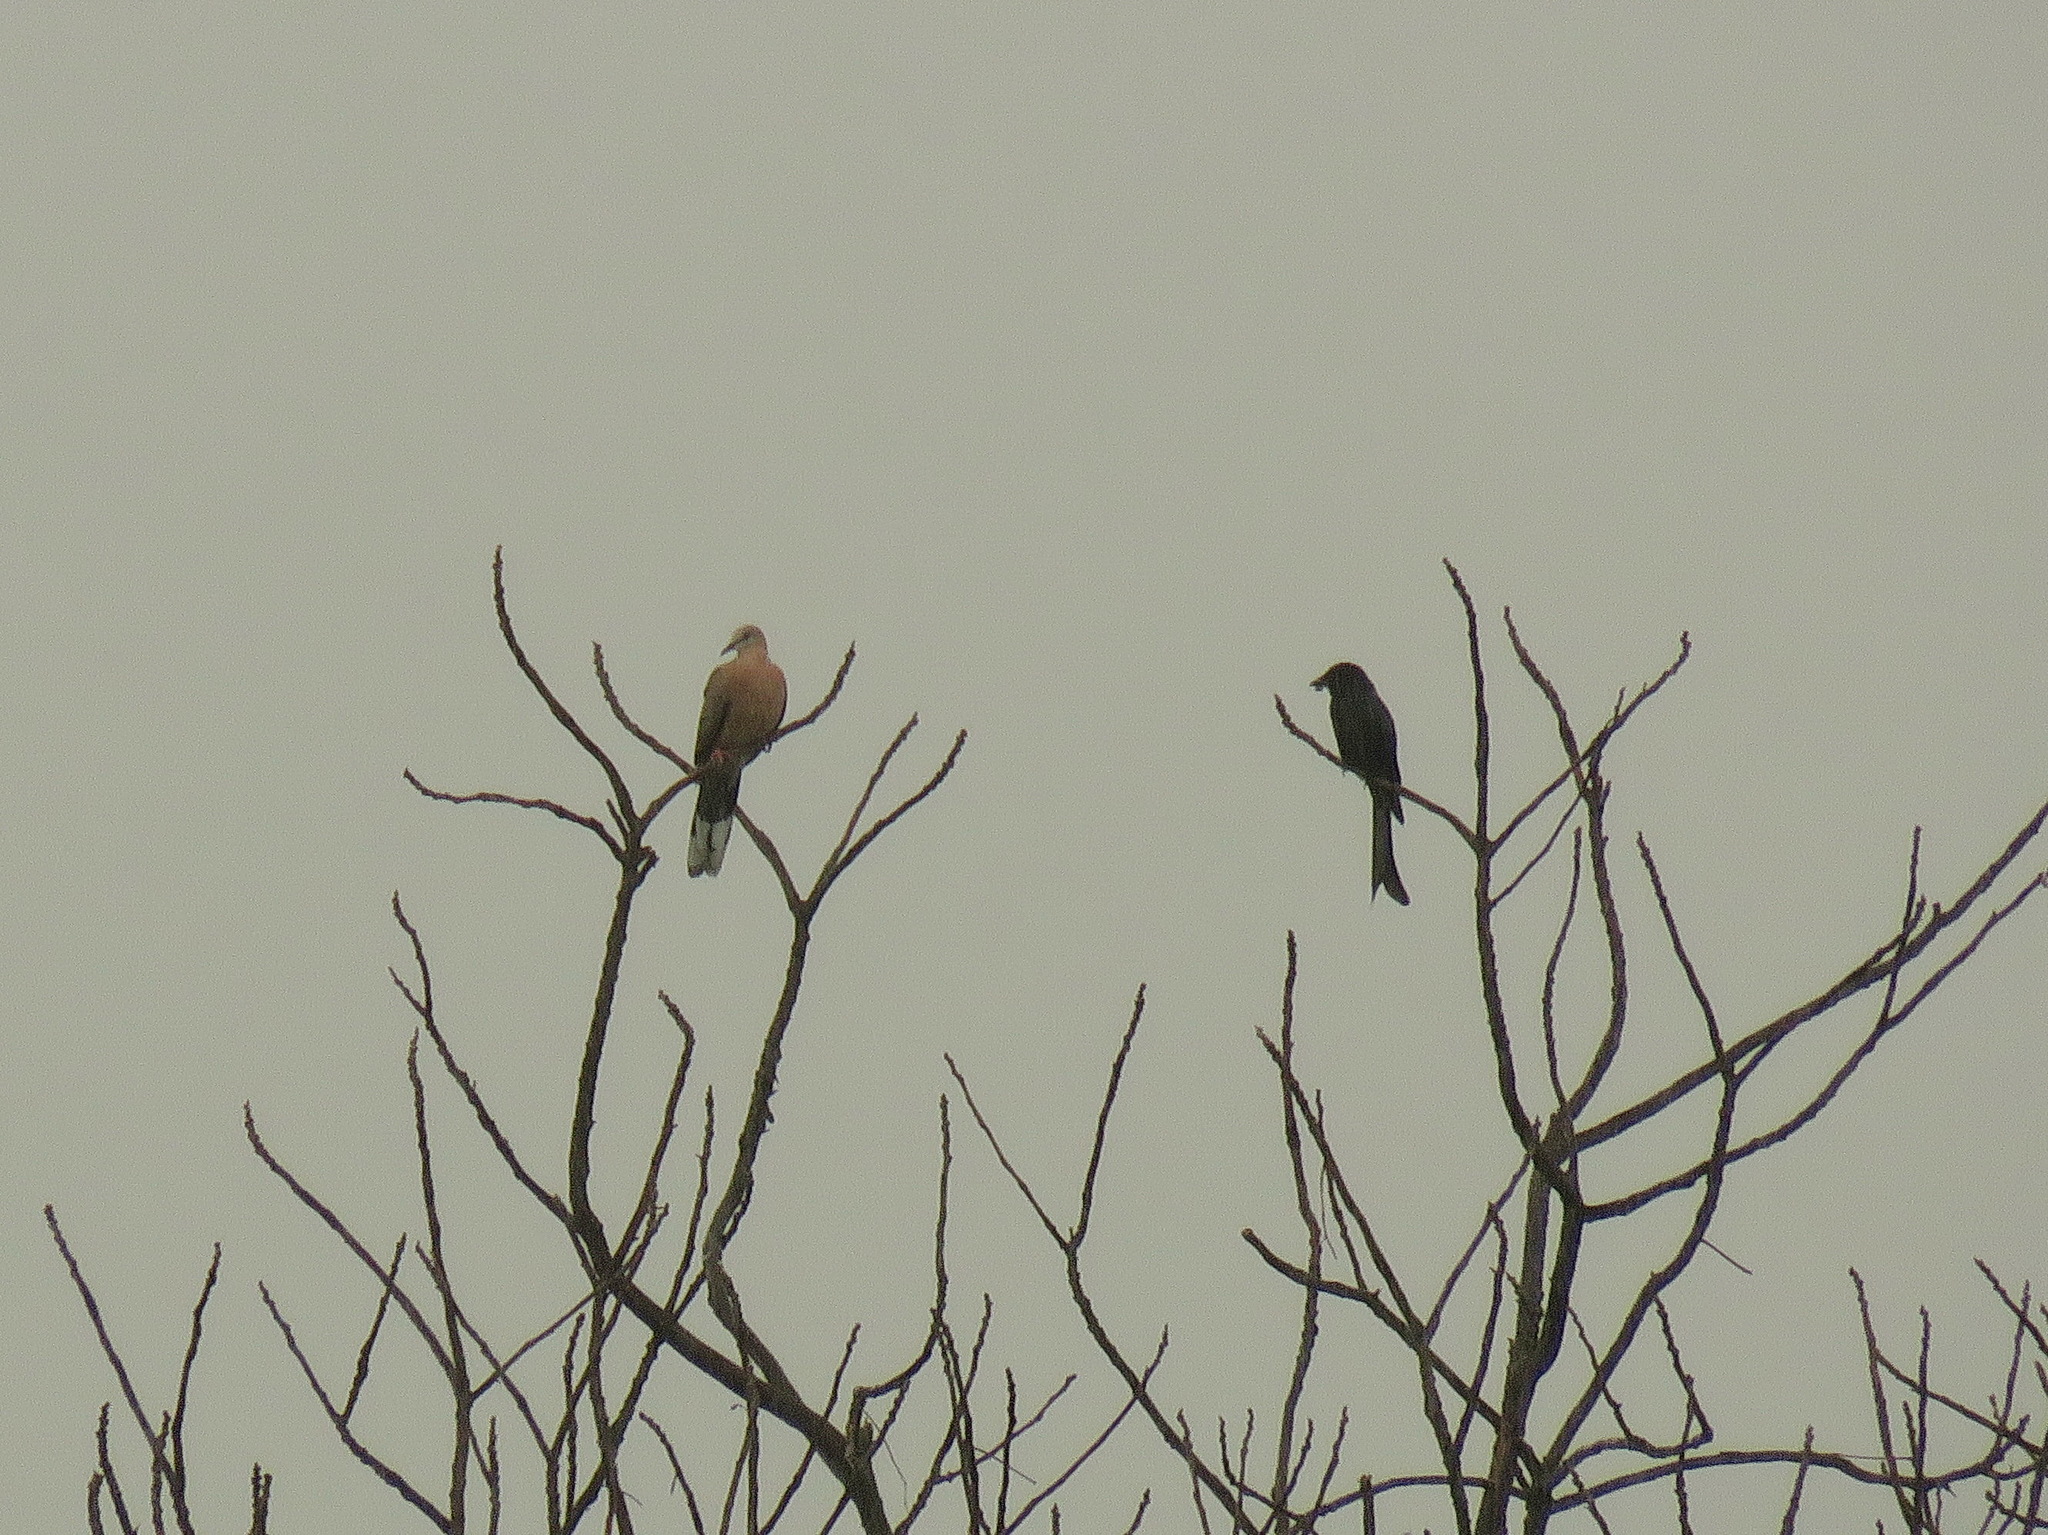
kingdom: Animalia
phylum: Chordata
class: Aves
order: Passeriformes
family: Dicruridae
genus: Dicrurus
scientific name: Dicrurus macrocercus
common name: Black drongo
